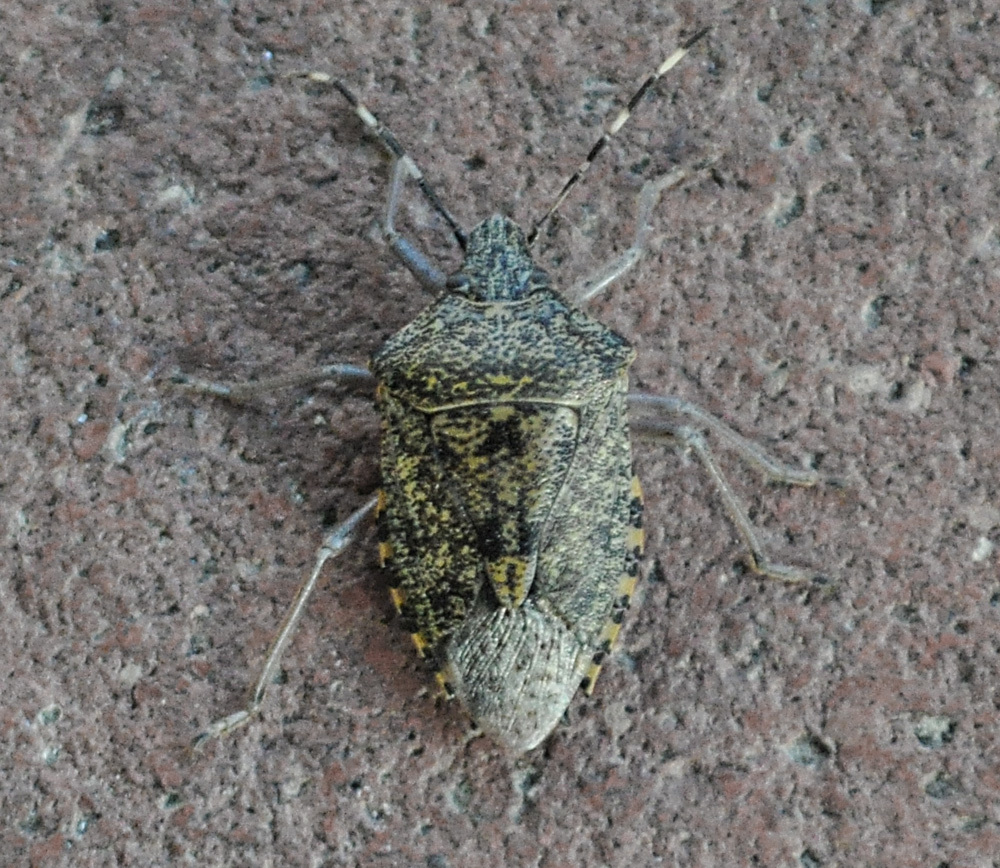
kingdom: Animalia
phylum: Arthropoda
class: Insecta
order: Hemiptera
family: Pentatomidae
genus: Rhaphigaster
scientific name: Rhaphigaster nebulosa
